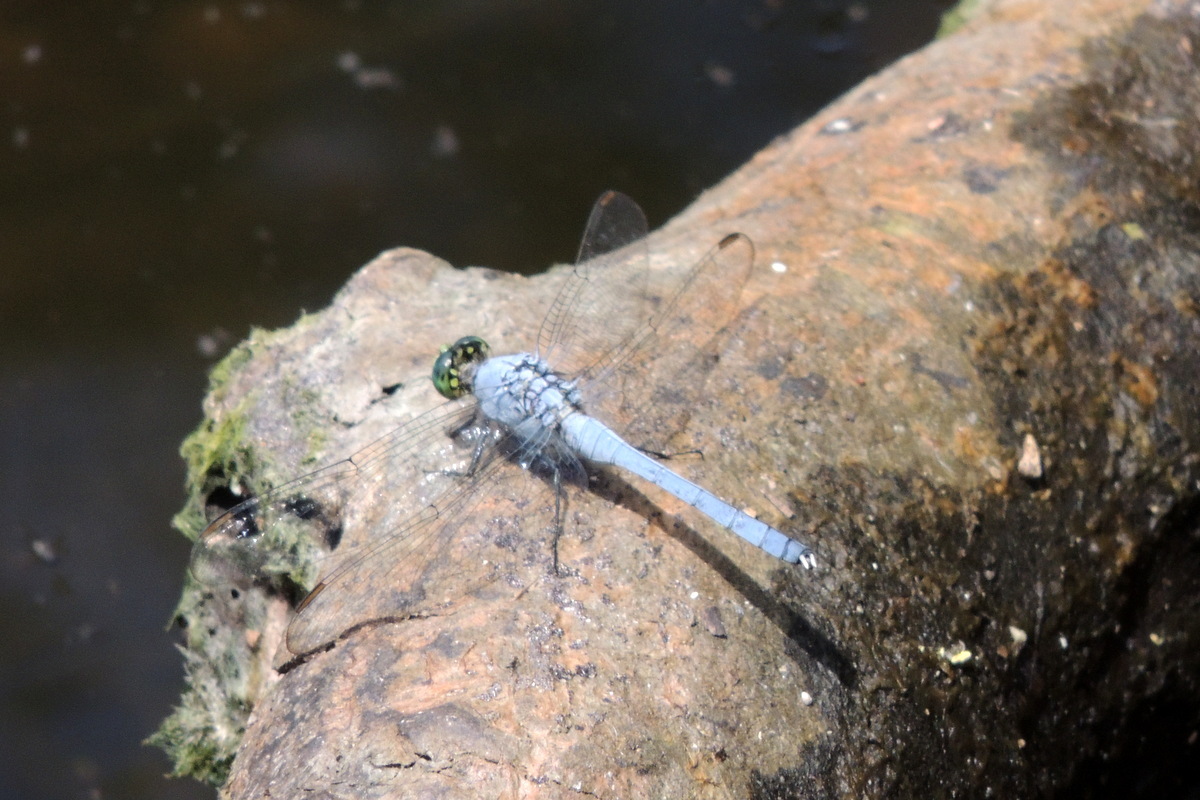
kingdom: Animalia
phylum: Arthropoda
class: Insecta
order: Odonata
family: Libellulidae
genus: Erythemis
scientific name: Erythemis simplicicollis
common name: Eastern pondhawk
